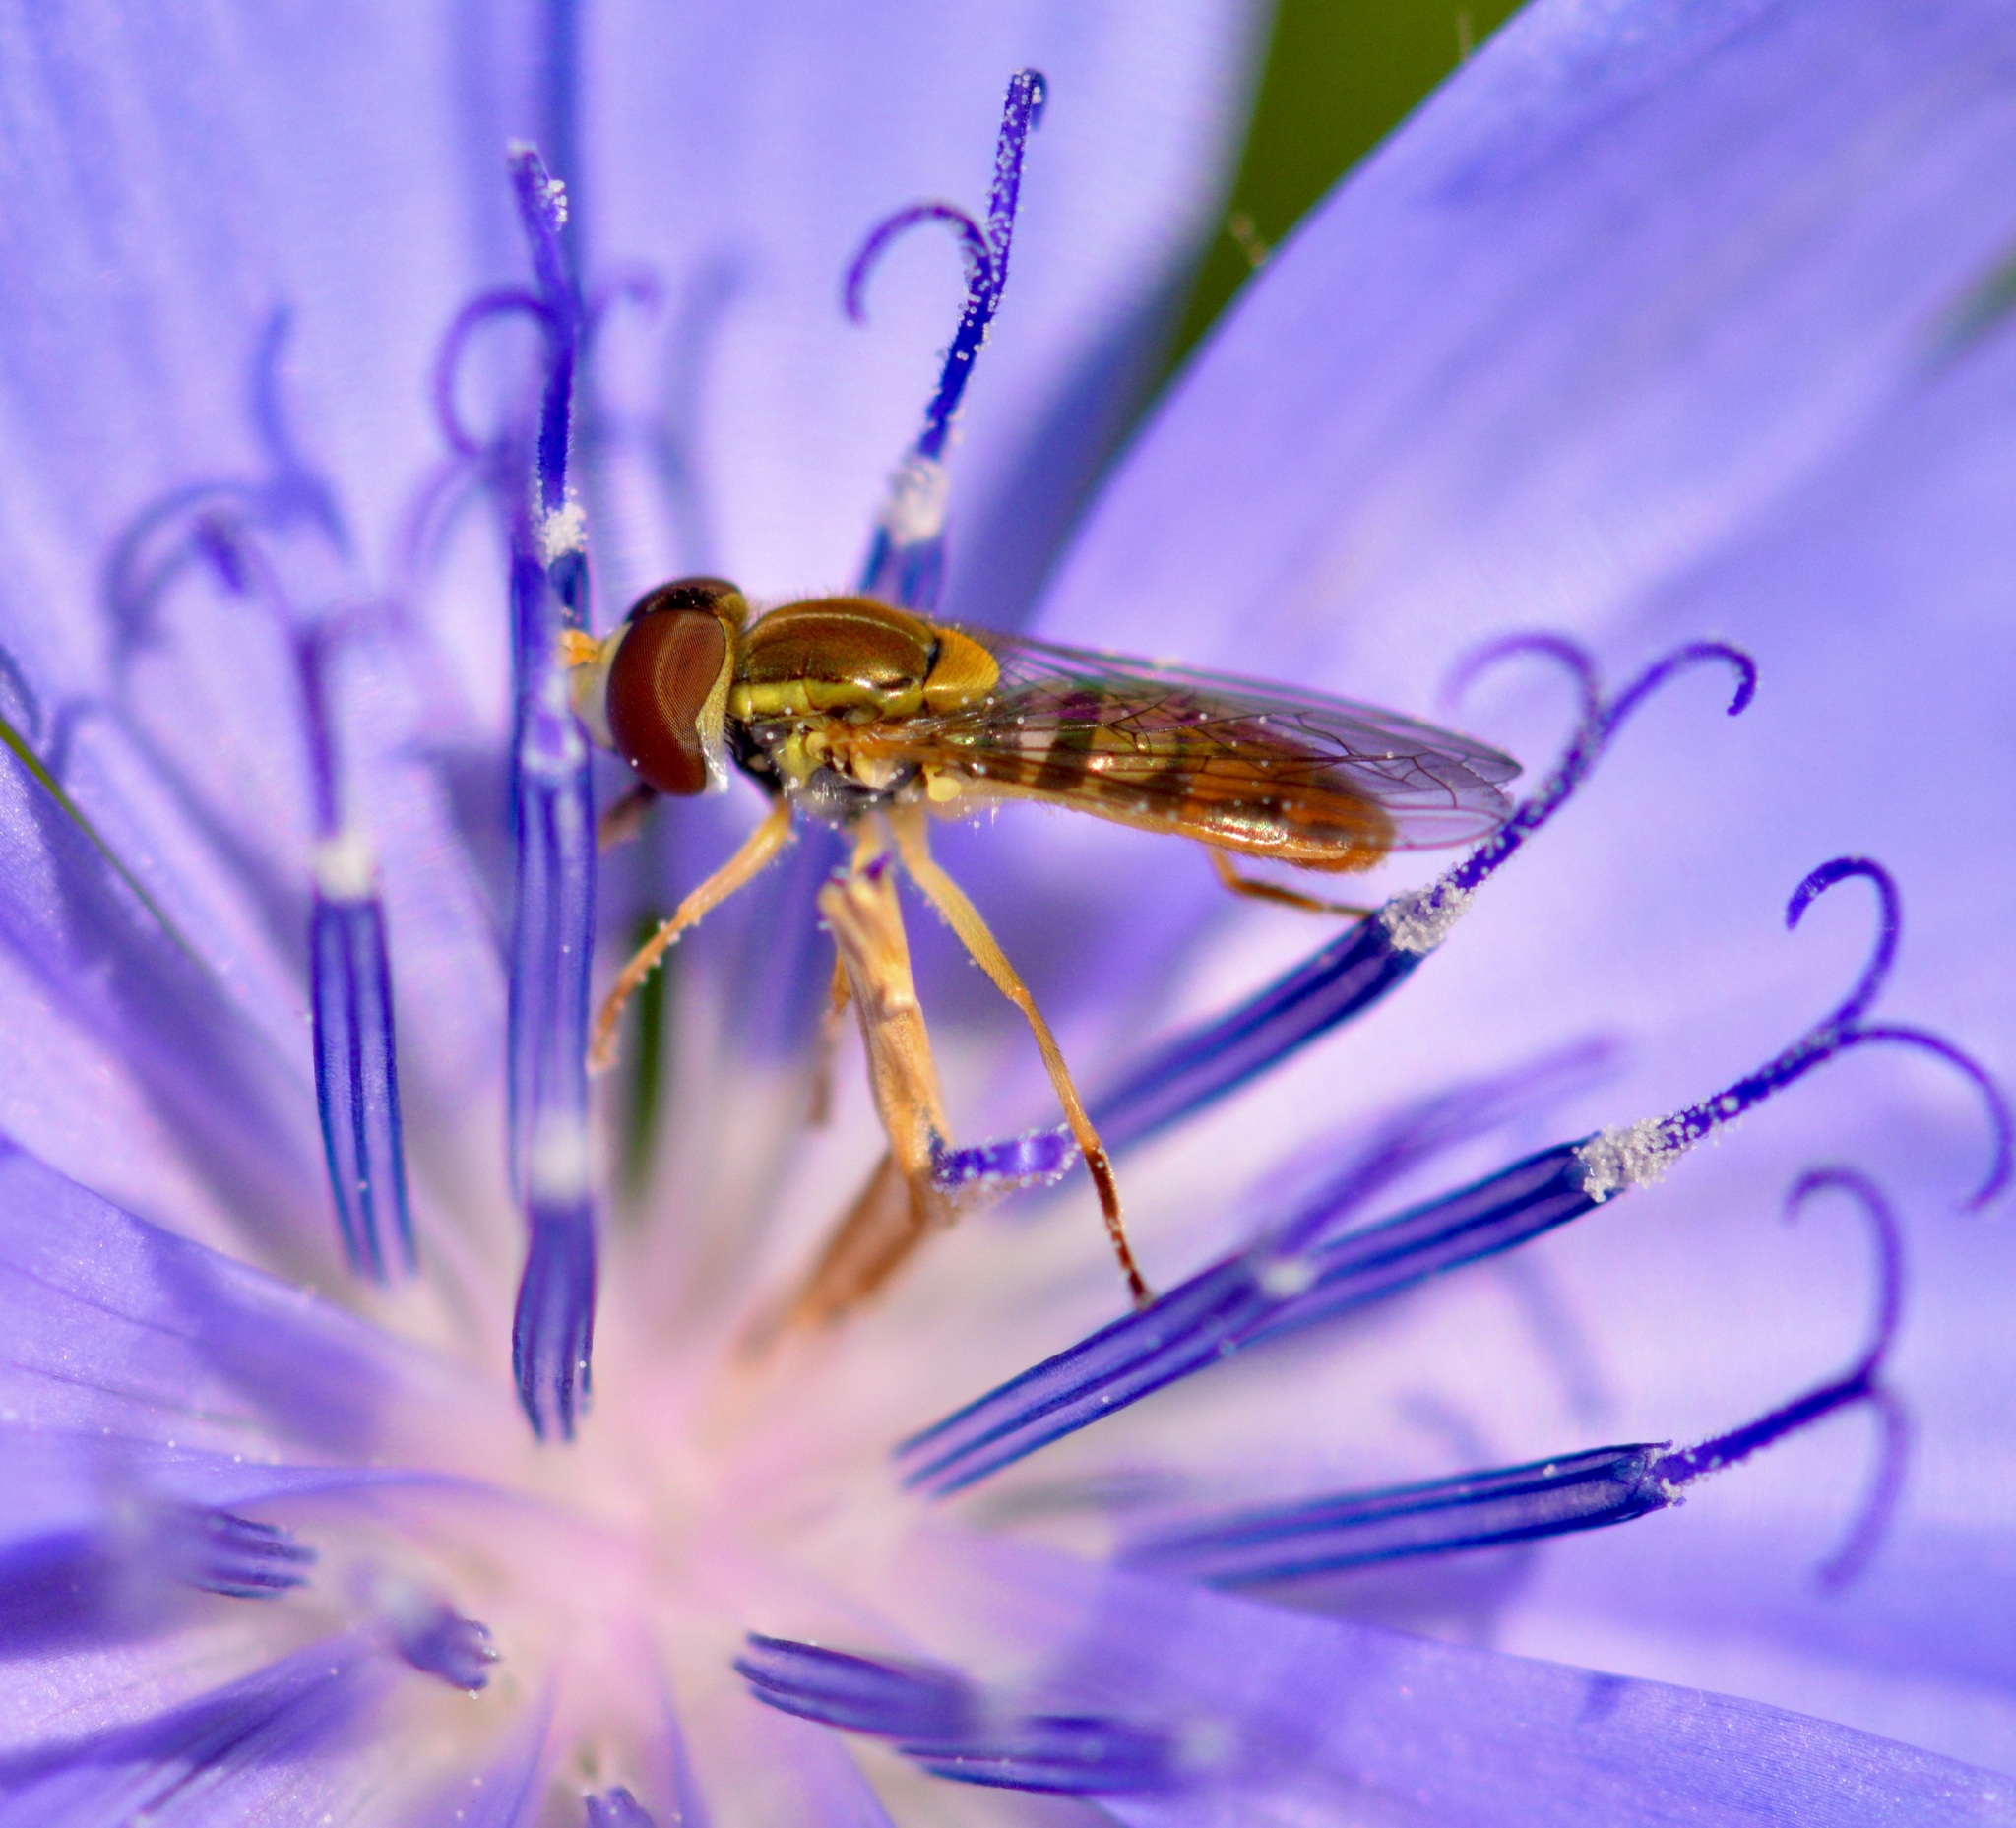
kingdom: Animalia
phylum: Arthropoda
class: Insecta
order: Diptera
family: Syrphidae
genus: Toxomerus
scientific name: Toxomerus marginatus
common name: Syrphid fly
